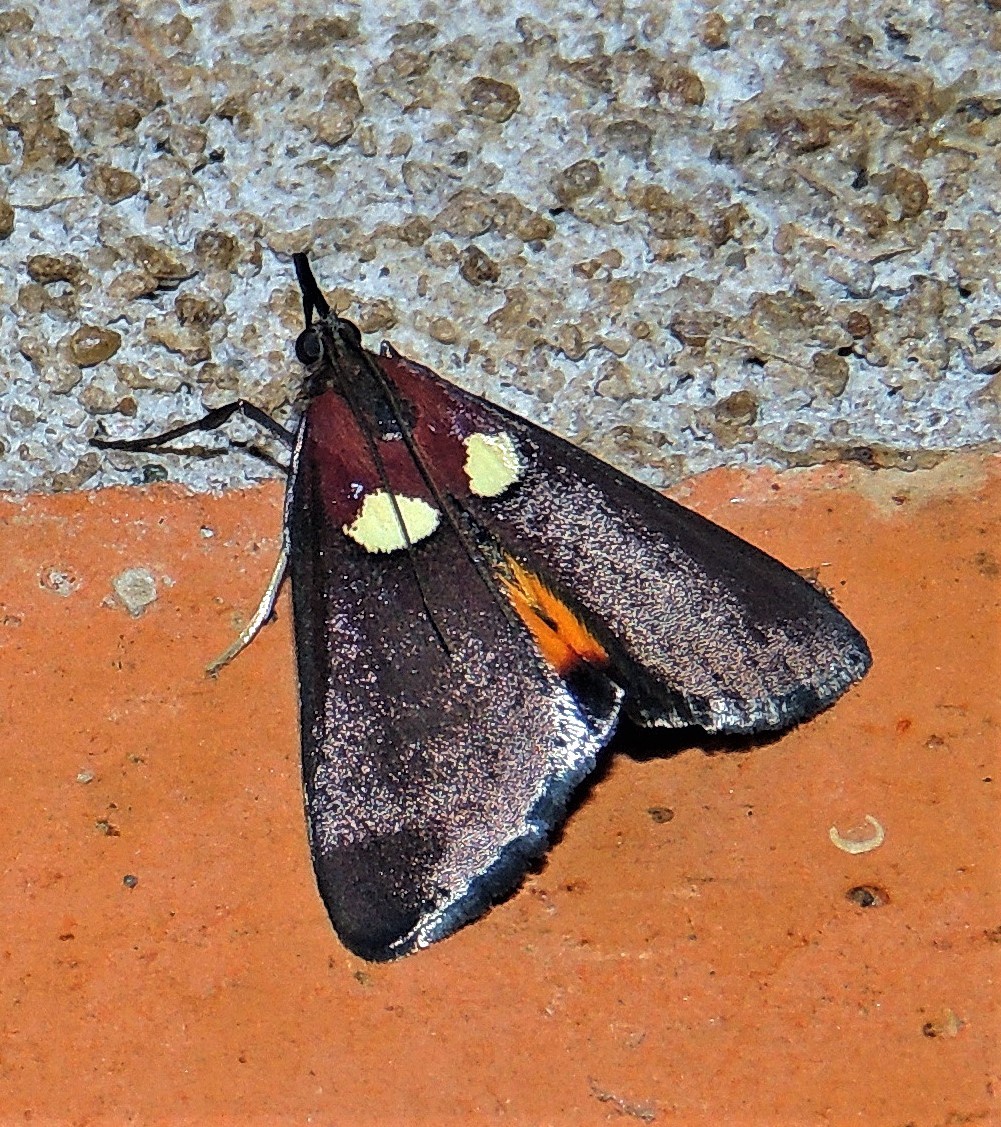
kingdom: Animalia
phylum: Arthropoda
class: Insecta
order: Lepidoptera
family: Pyralidae
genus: Semnia
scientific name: Semnia auritalis
